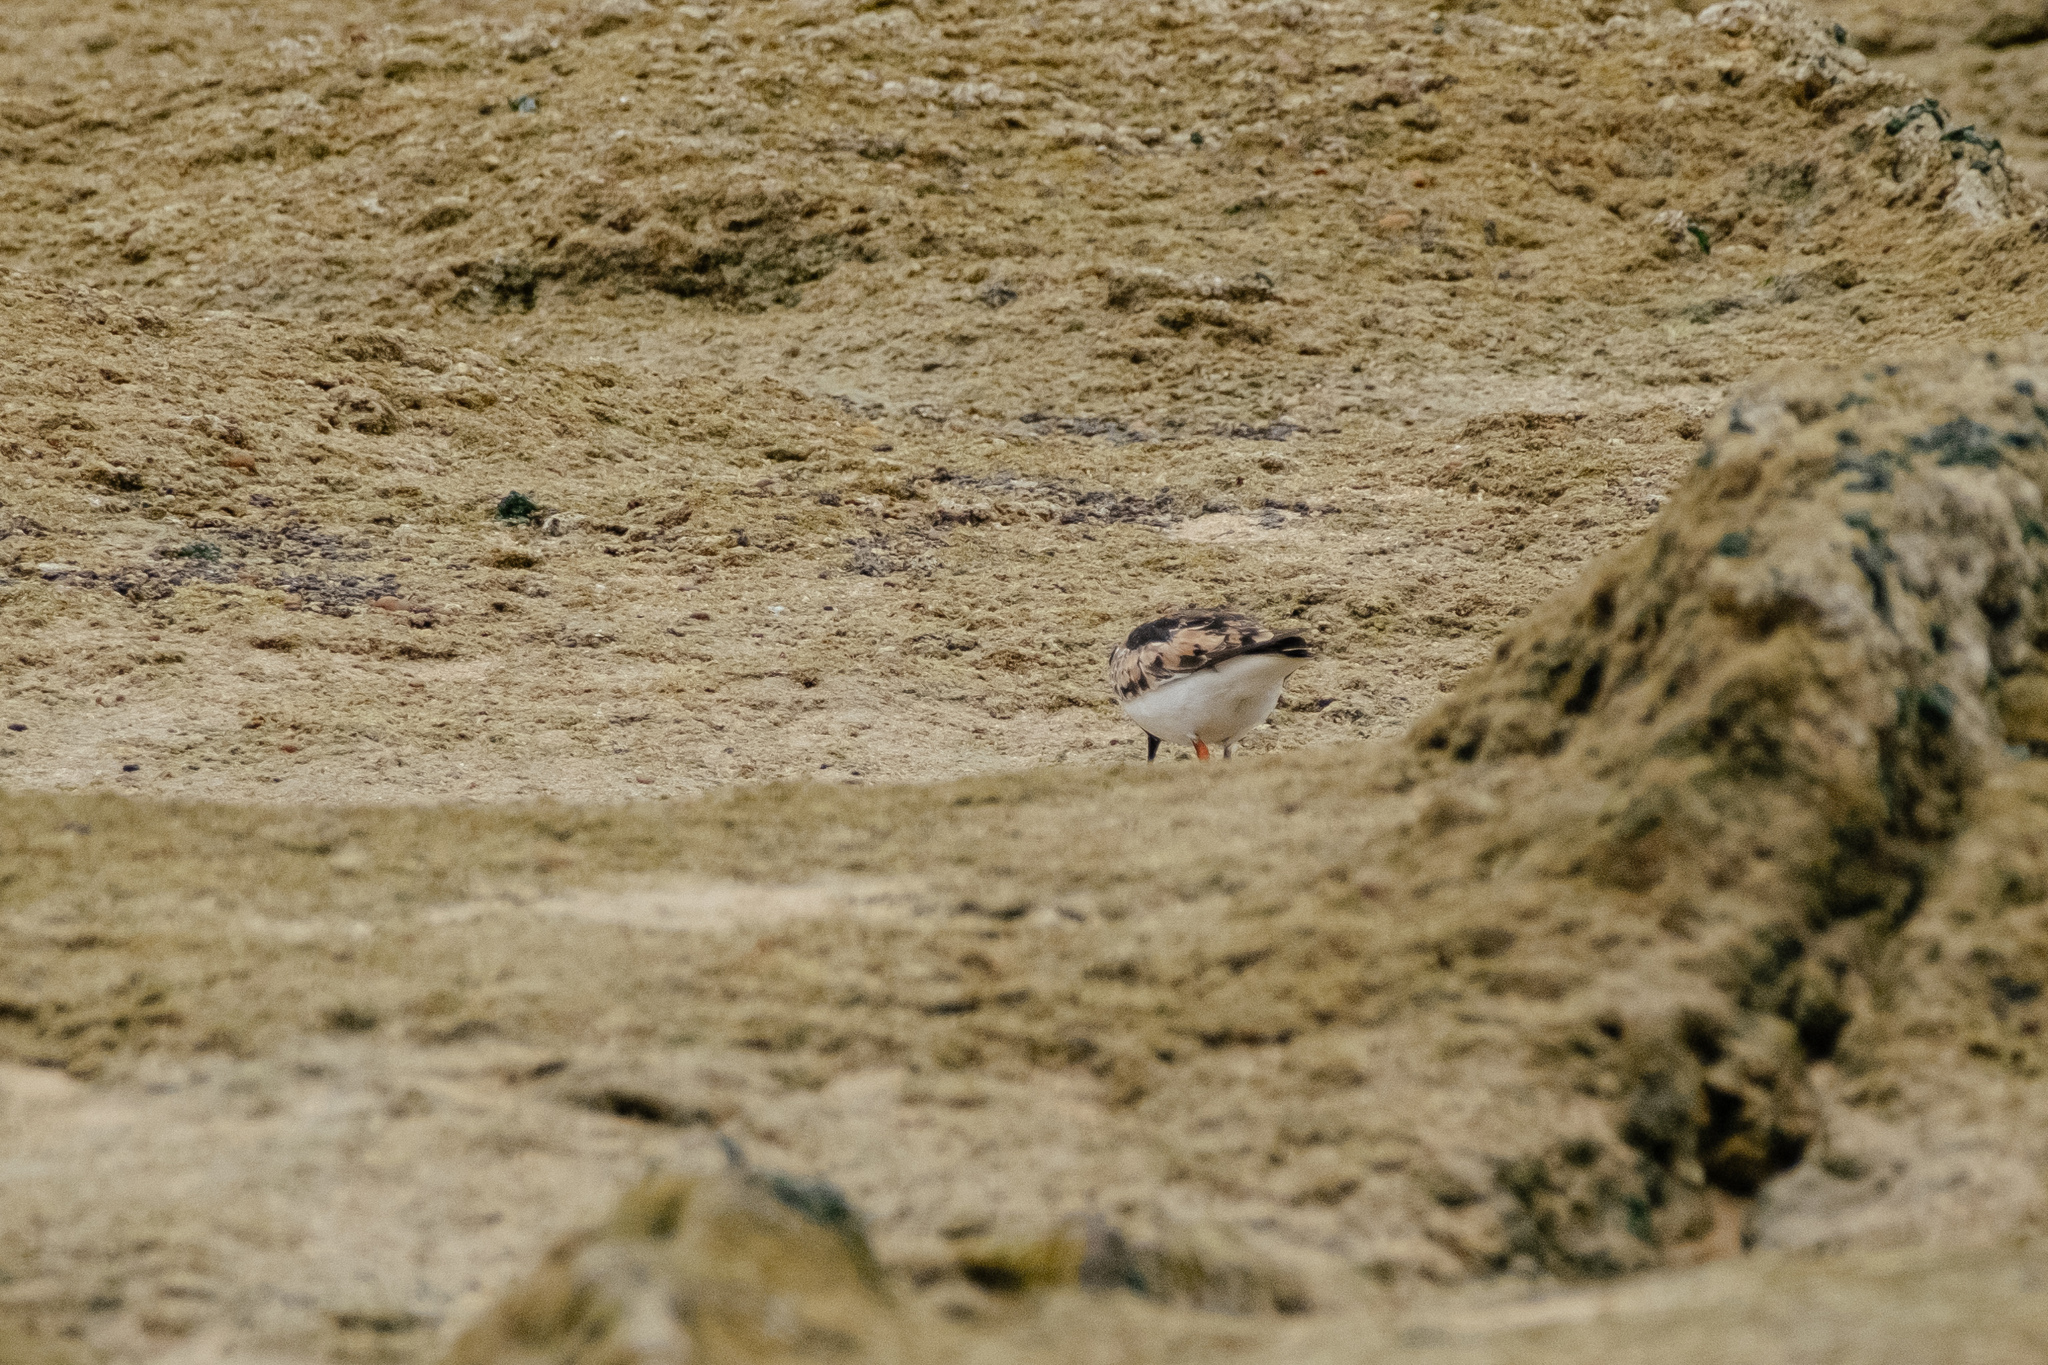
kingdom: Animalia
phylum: Chordata
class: Aves
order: Charadriiformes
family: Scolopacidae
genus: Arenaria
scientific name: Arenaria interpres
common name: Ruddy turnstone
